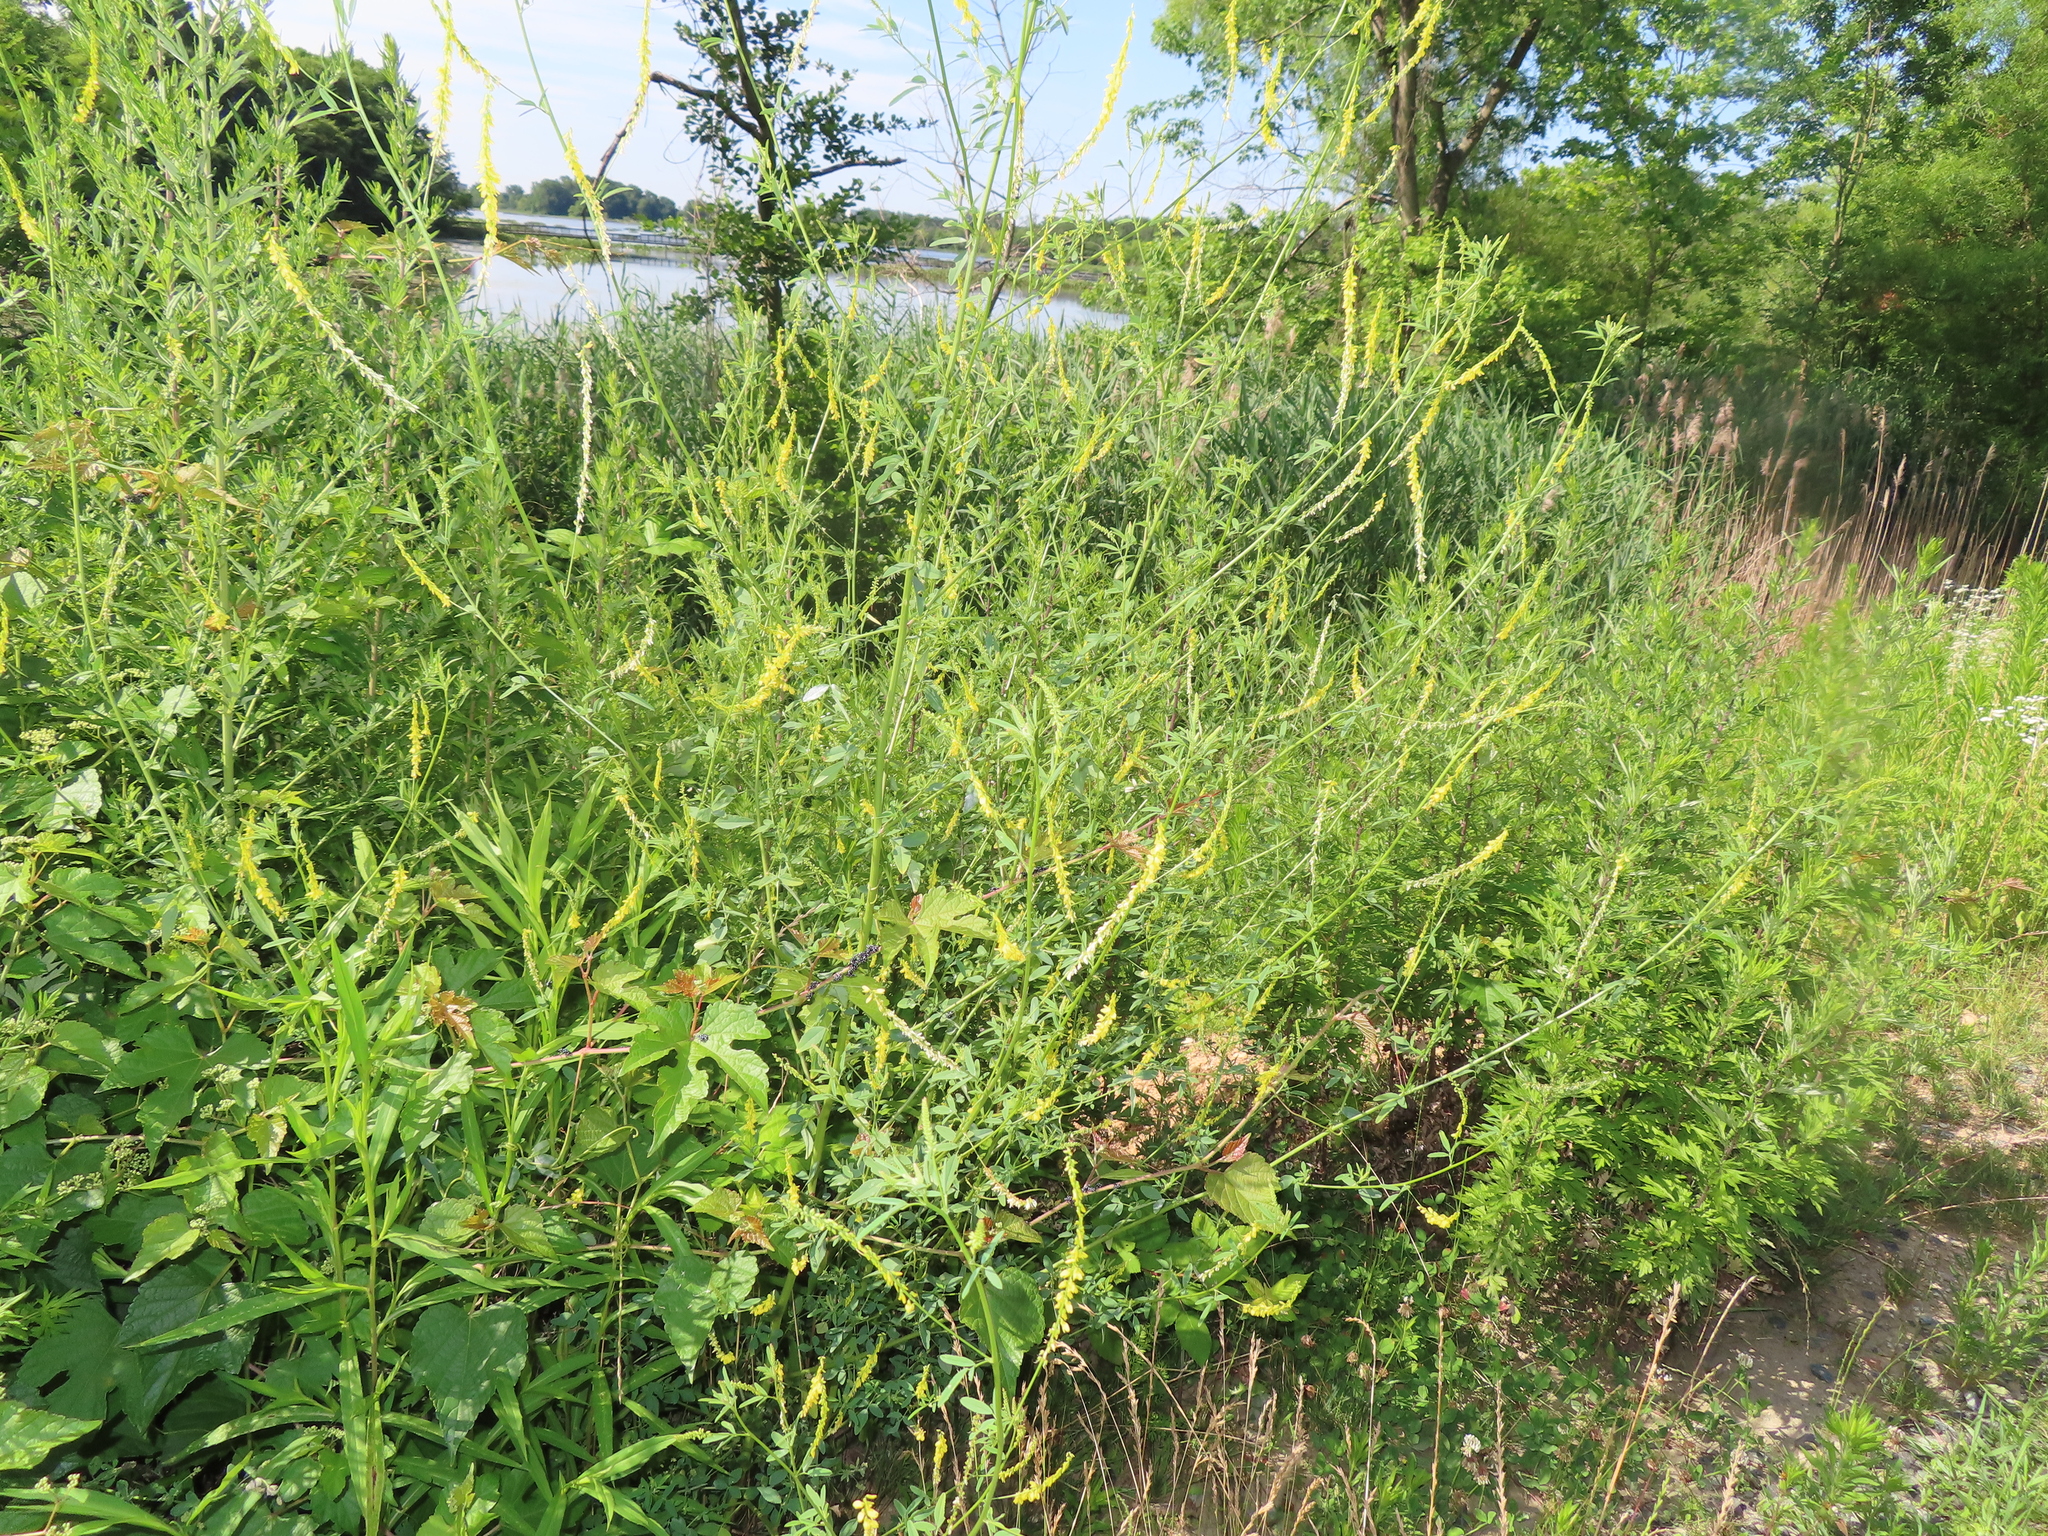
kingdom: Plantae
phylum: Tracheophyta
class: Magnoliopsida
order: Fabales
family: Fabaceae
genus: Melilotus
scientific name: Melilotus officinalis
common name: Sweetclover
